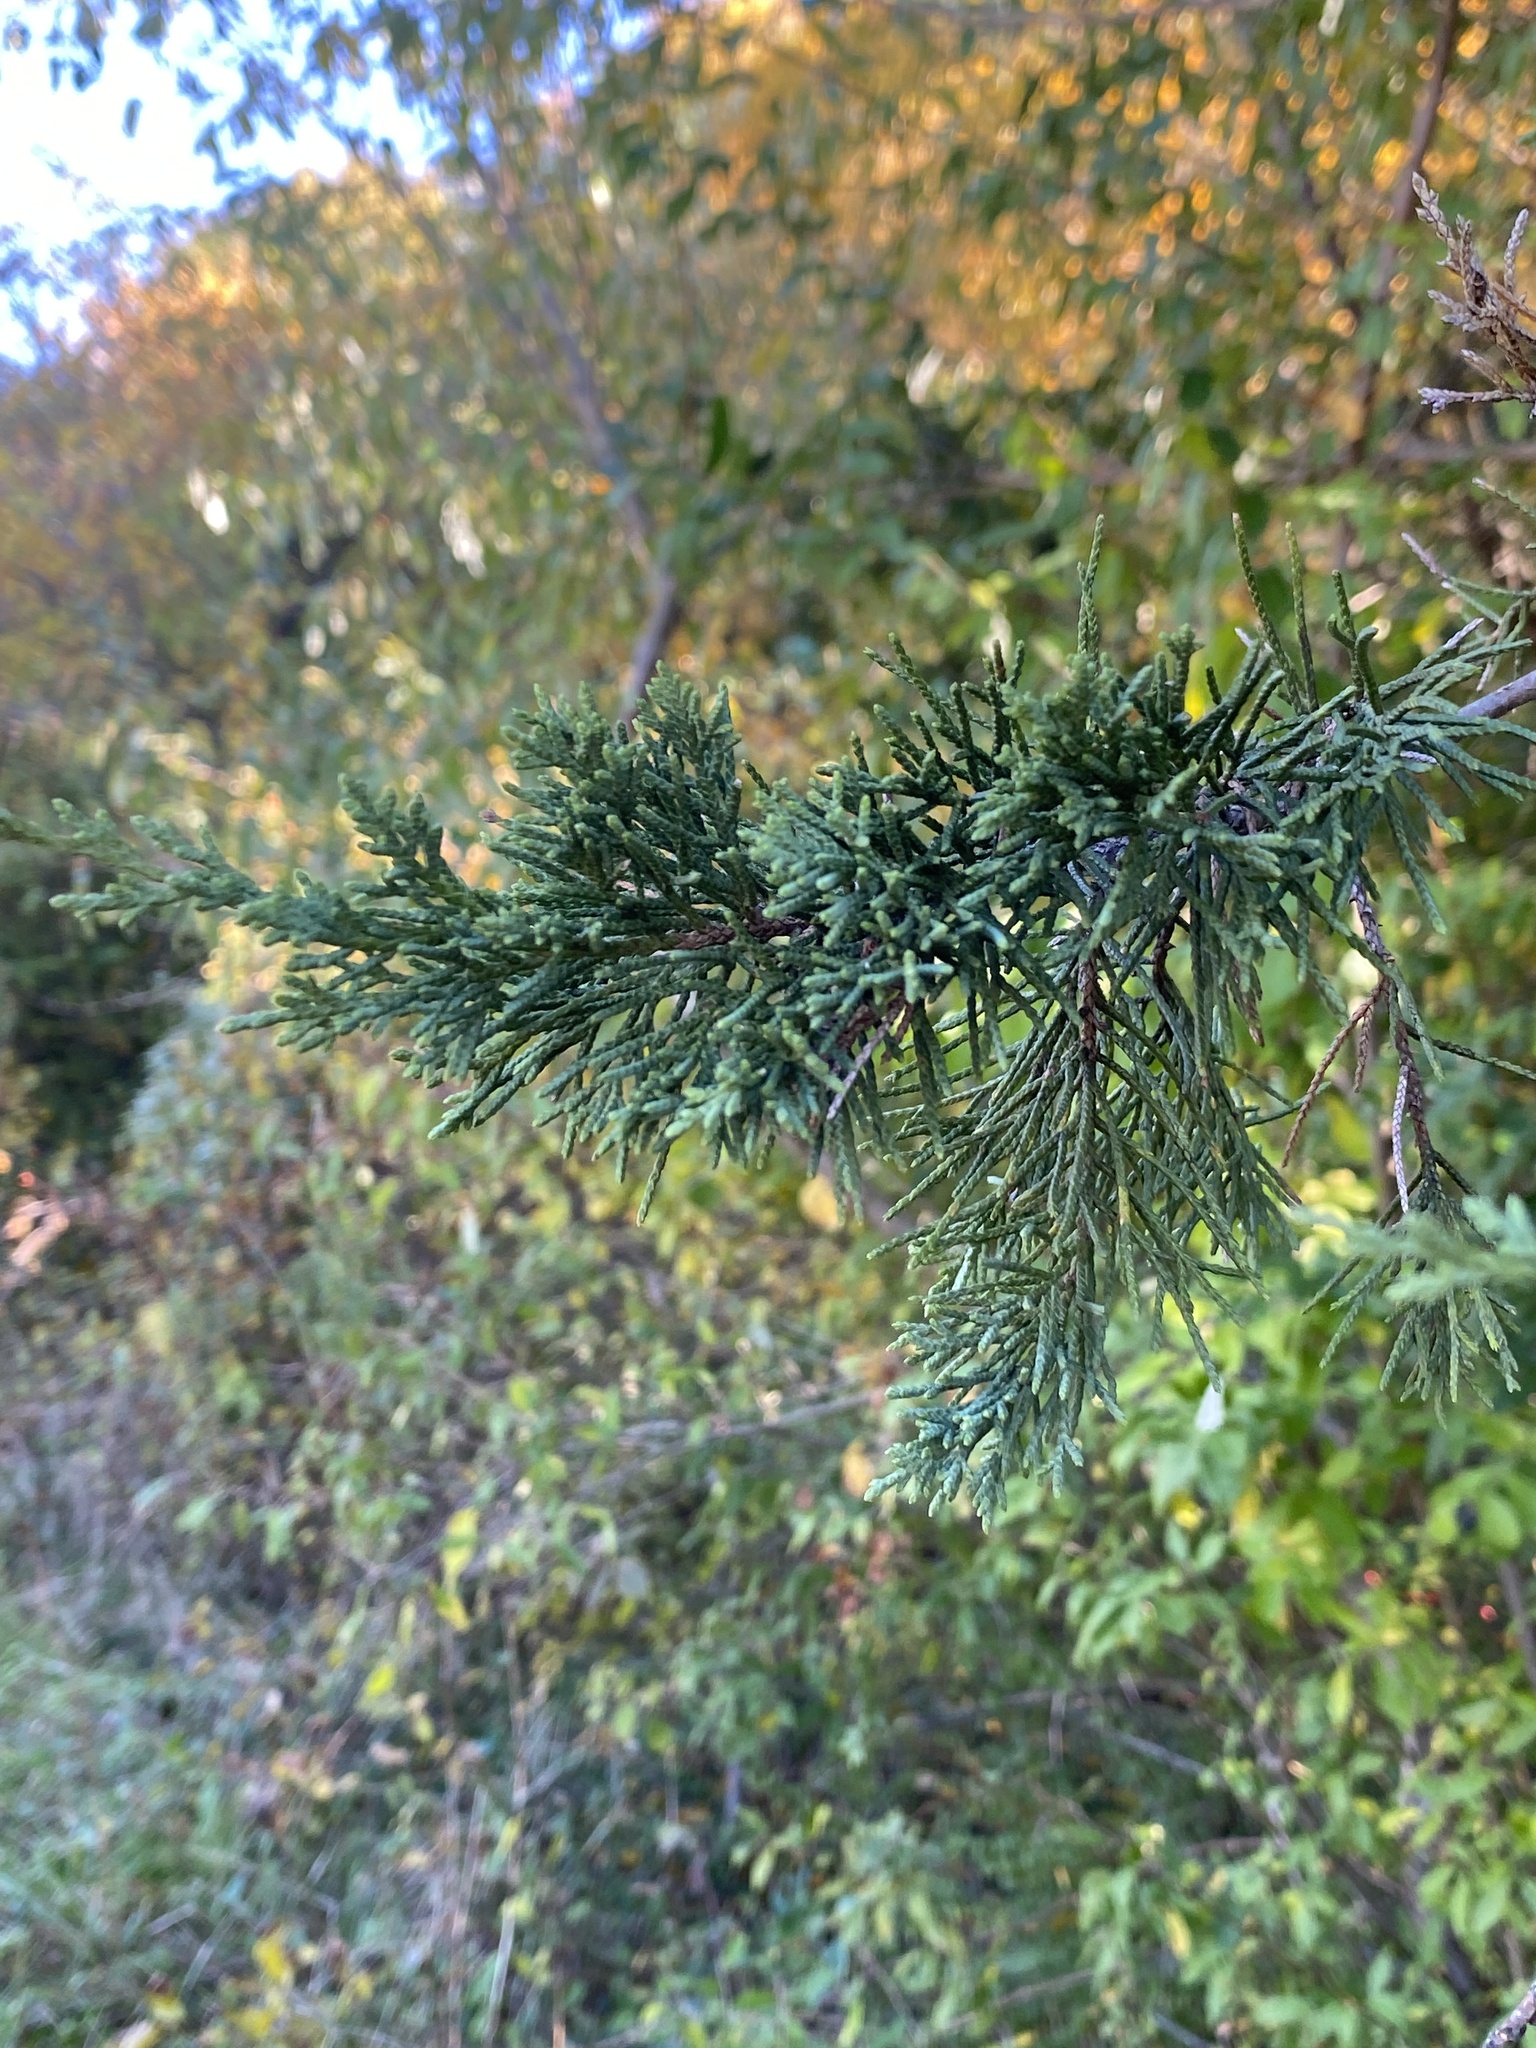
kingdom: Plantae
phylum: Tracheophyta
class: Pinopsida
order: Pinales
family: Cupressaceae
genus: Juniperus
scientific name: Juniperus virginiana
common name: Red juniper
